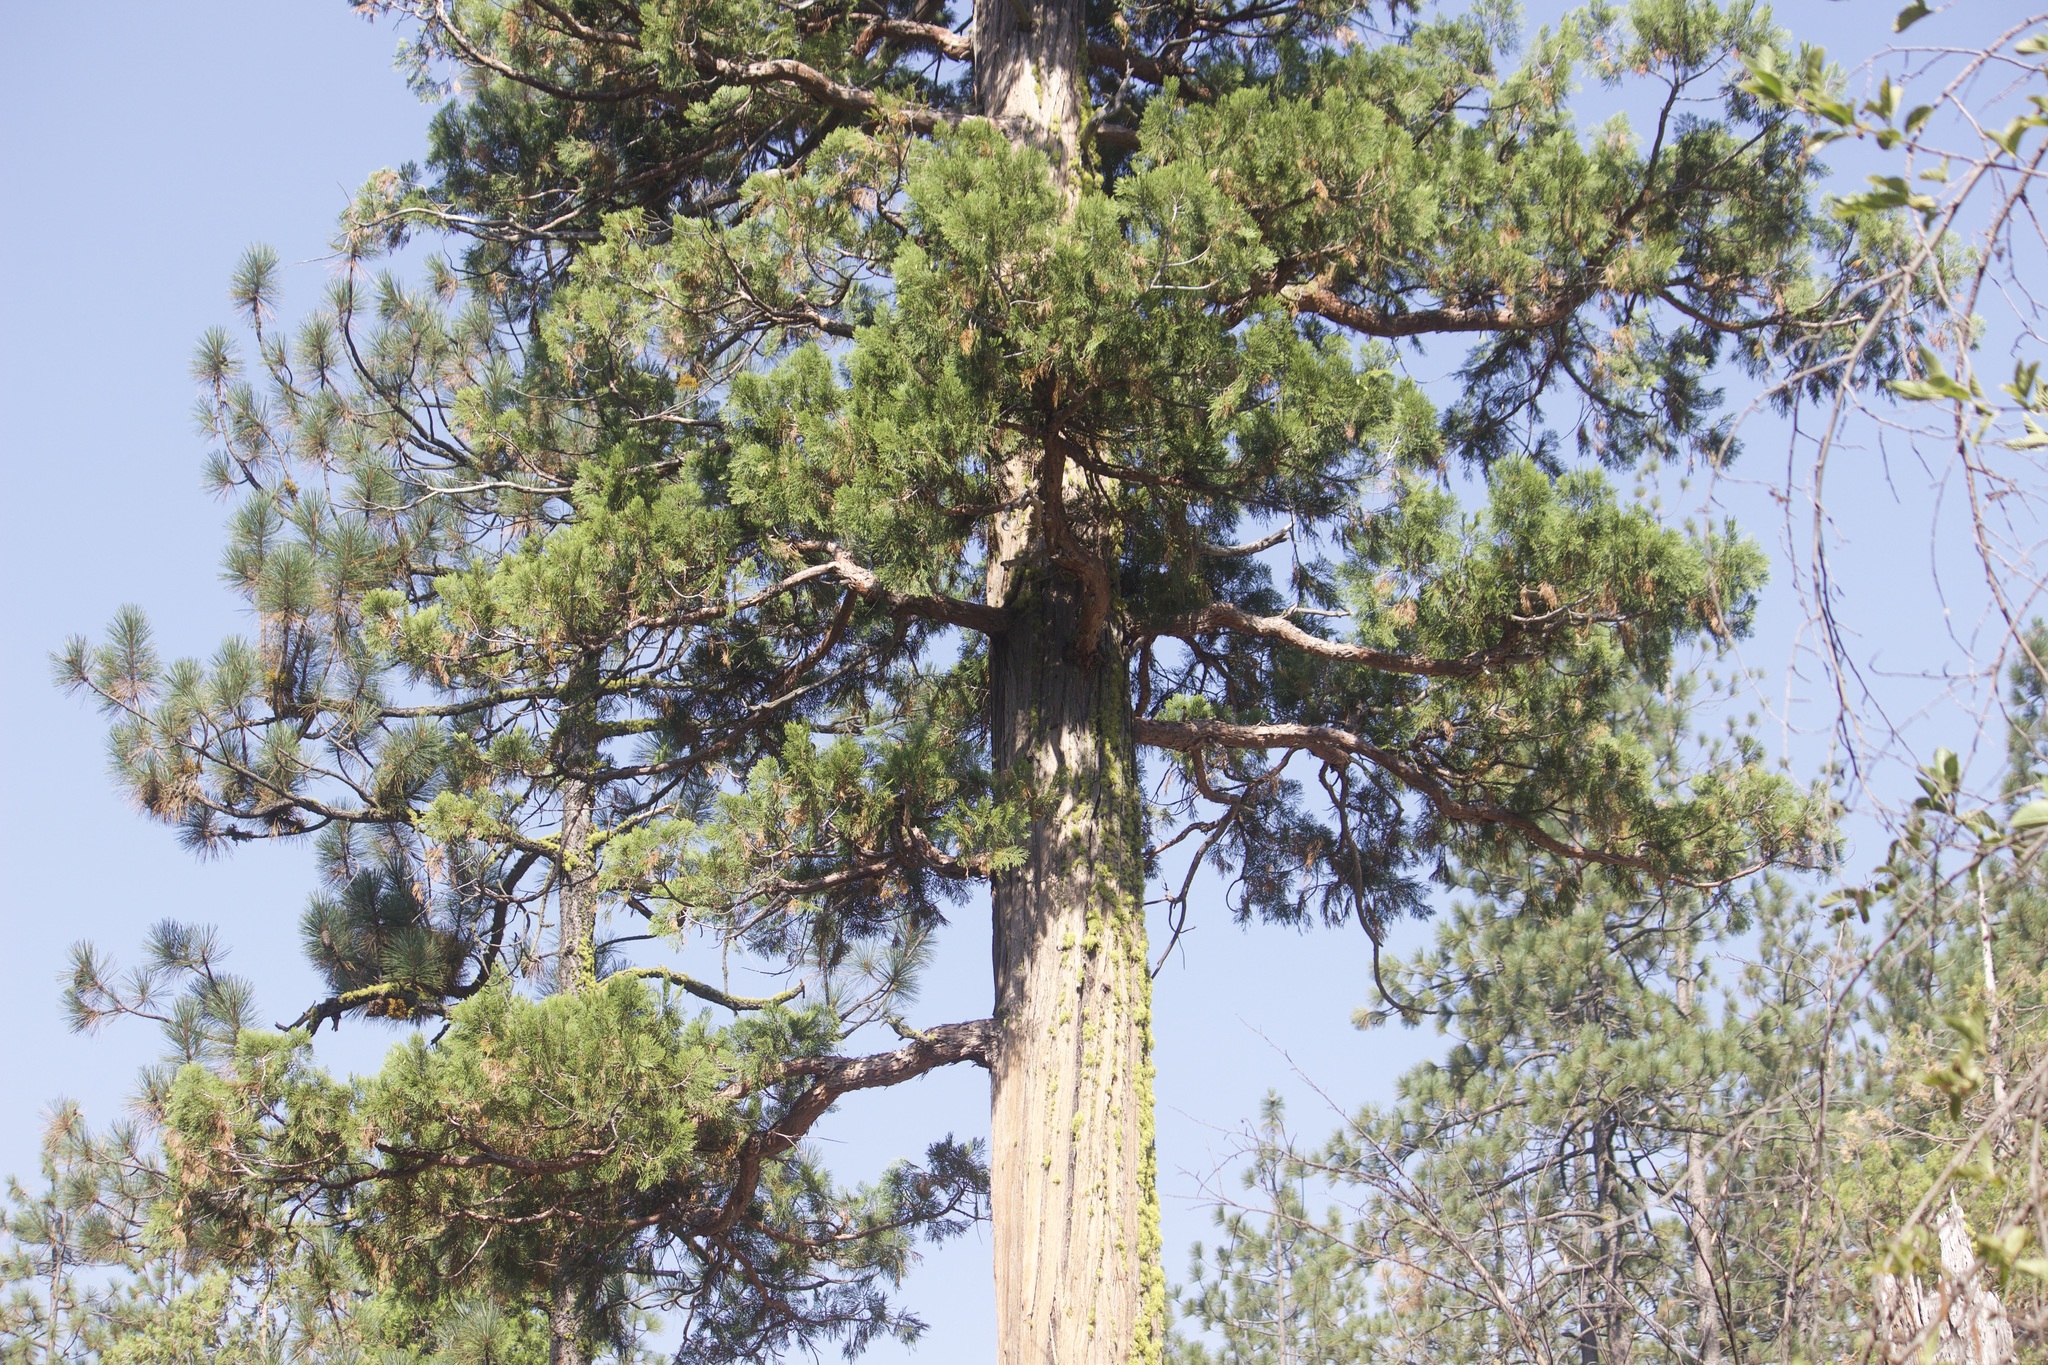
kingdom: Plantae
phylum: Tracheophyta
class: Pinopsida
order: Pinales
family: Cupressaceae
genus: Calocedrus
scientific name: Calocedrus decurrens
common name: Californian incense-cedar
